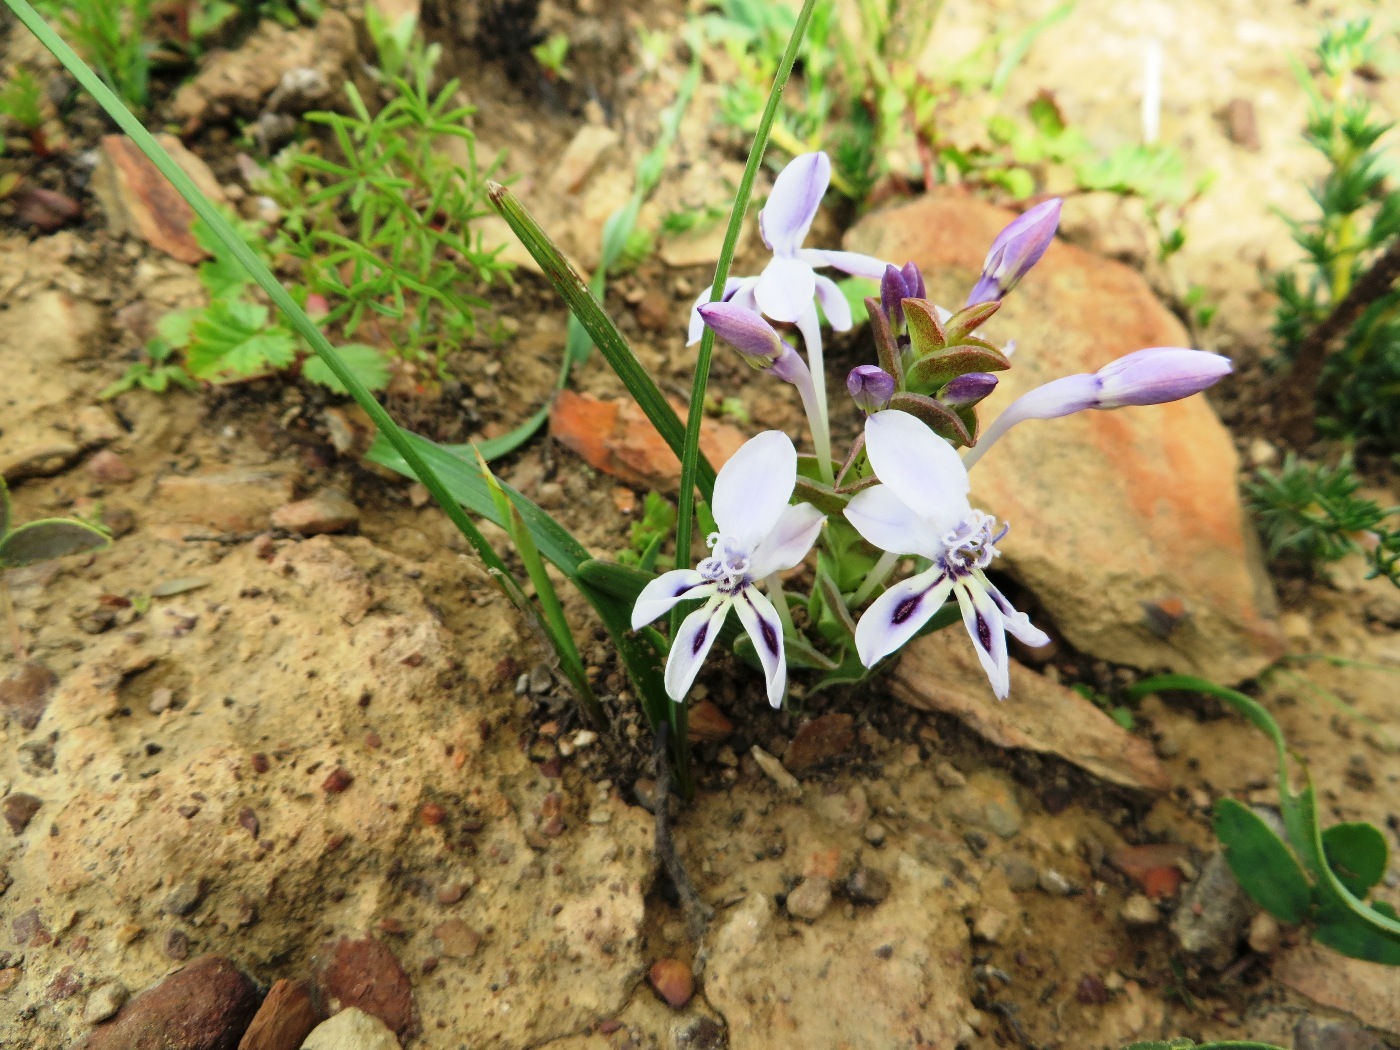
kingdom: Plantae
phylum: Tracheophyta
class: Liliopsida
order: Asparagales
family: Iridaceae
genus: Lapeirousia
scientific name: Lapeirousia pyramidalis
